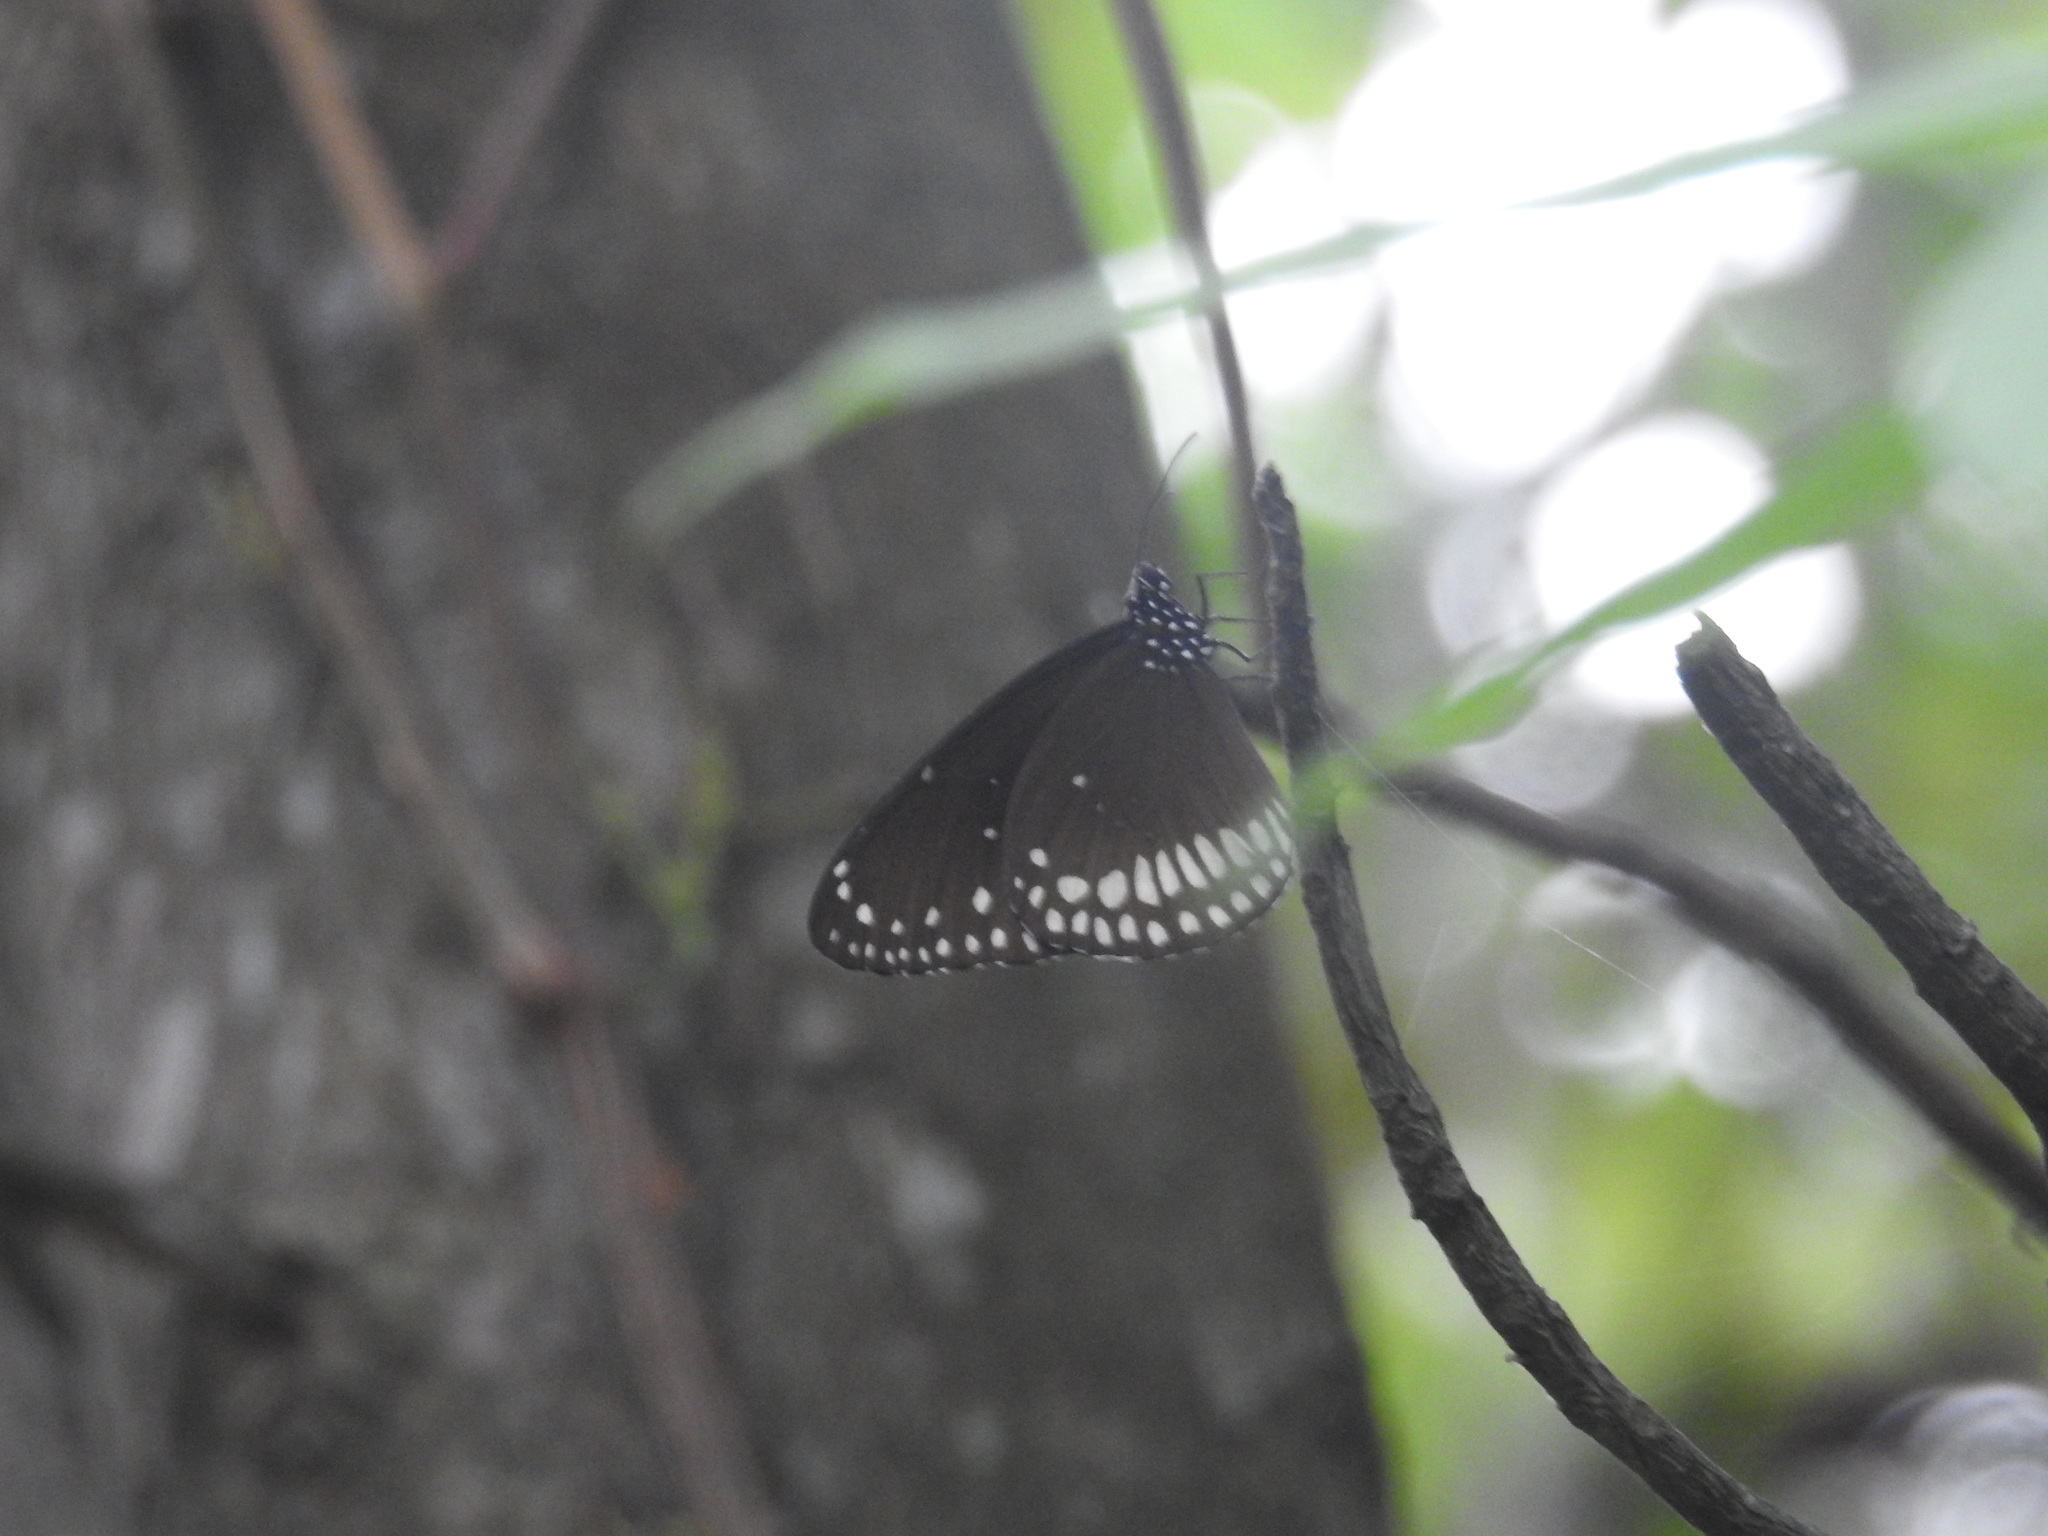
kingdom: Animalia
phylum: Arthropoda
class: Insecta
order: Lepidoptera
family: Nymphalidae
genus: Euploea
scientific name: Euploea core
